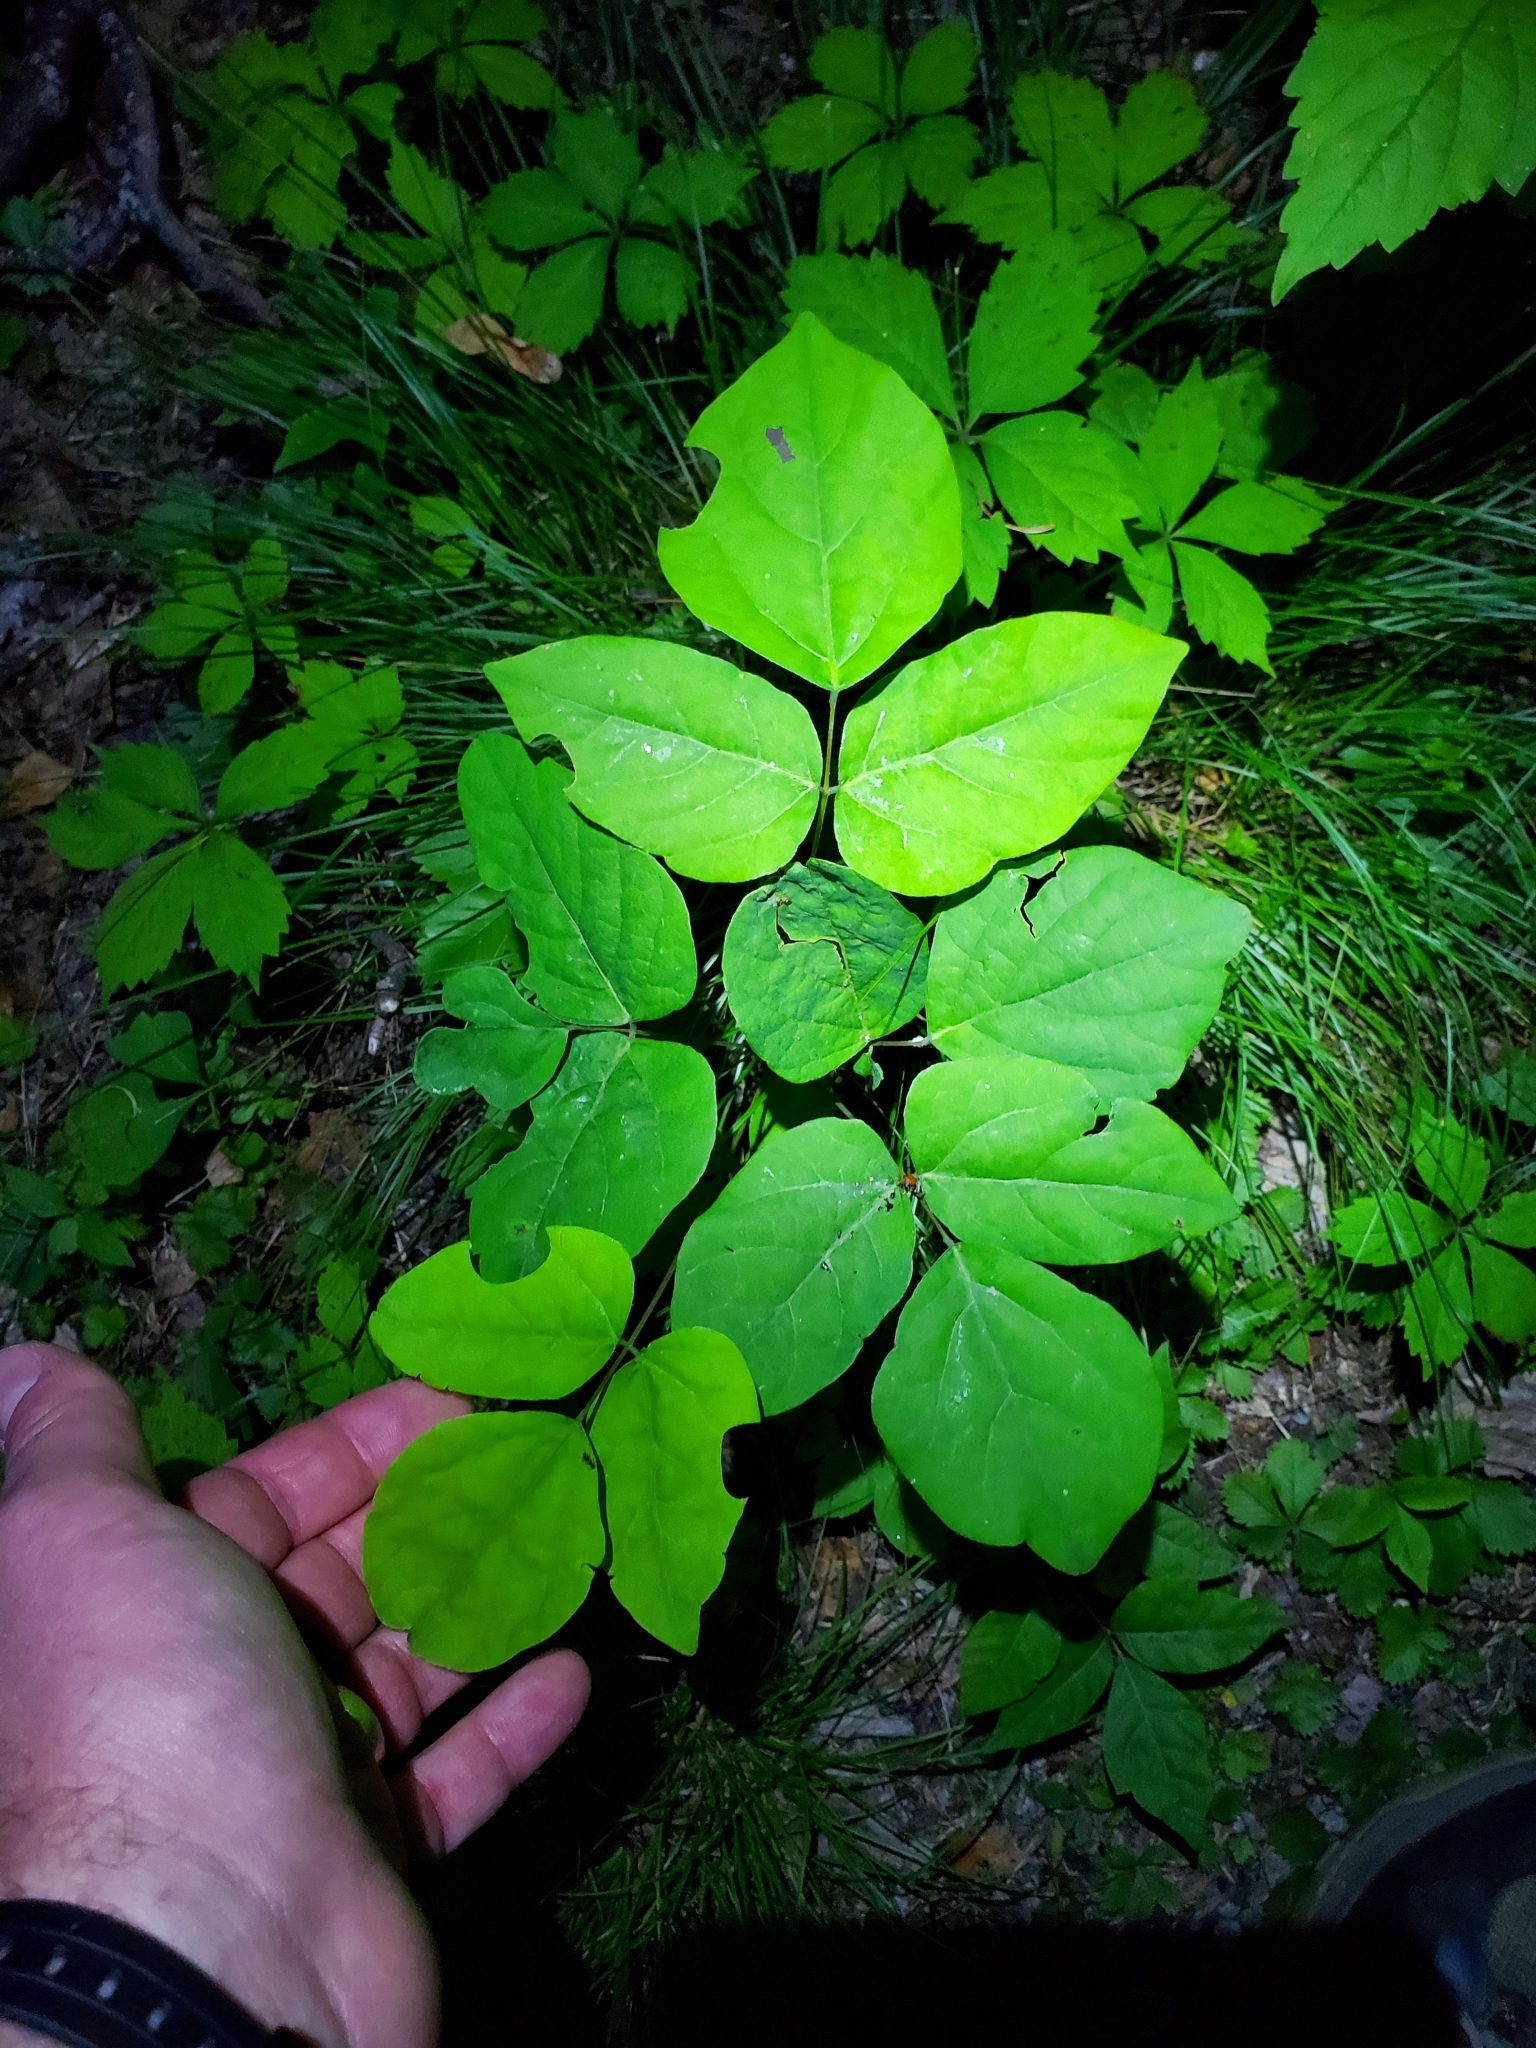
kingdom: Plantae
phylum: Tracheophyta
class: Magnoliopsida
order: Fabales
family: Fabaceae
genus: Hylodesmum
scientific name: Hylodesmum nudiflorum
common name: Bare-stemmed tick-trefoil
